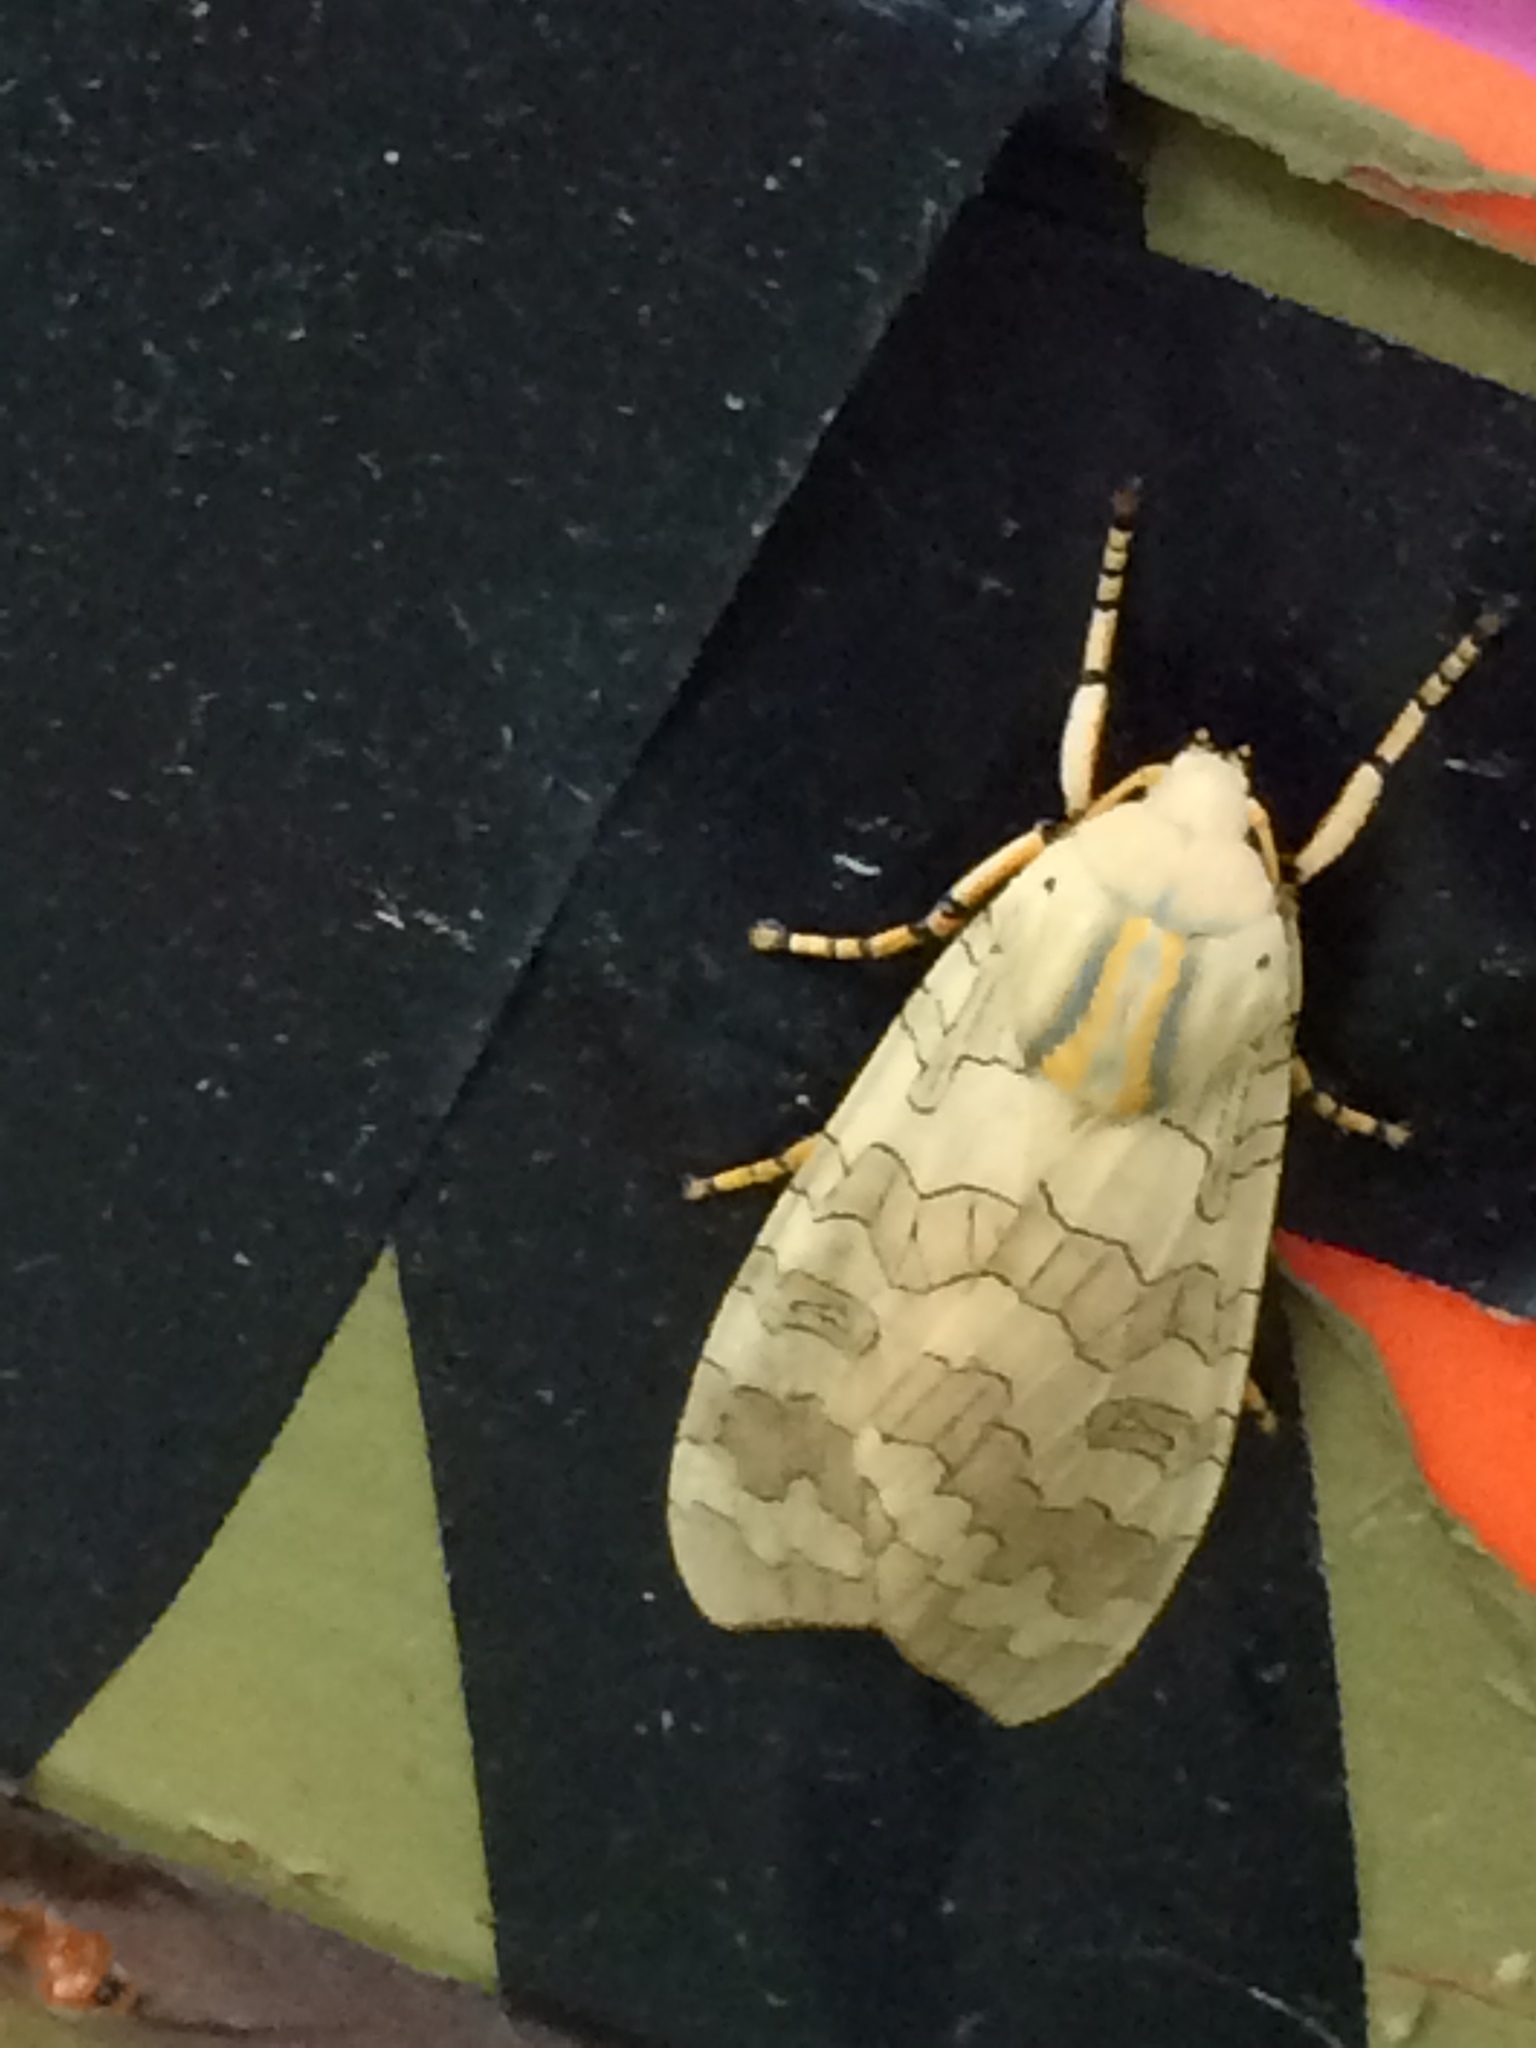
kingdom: Animalia
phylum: Arthropoda
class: Insecta
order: Lepidoptera
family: Erebidae
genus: Halysidota
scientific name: Halysidota
